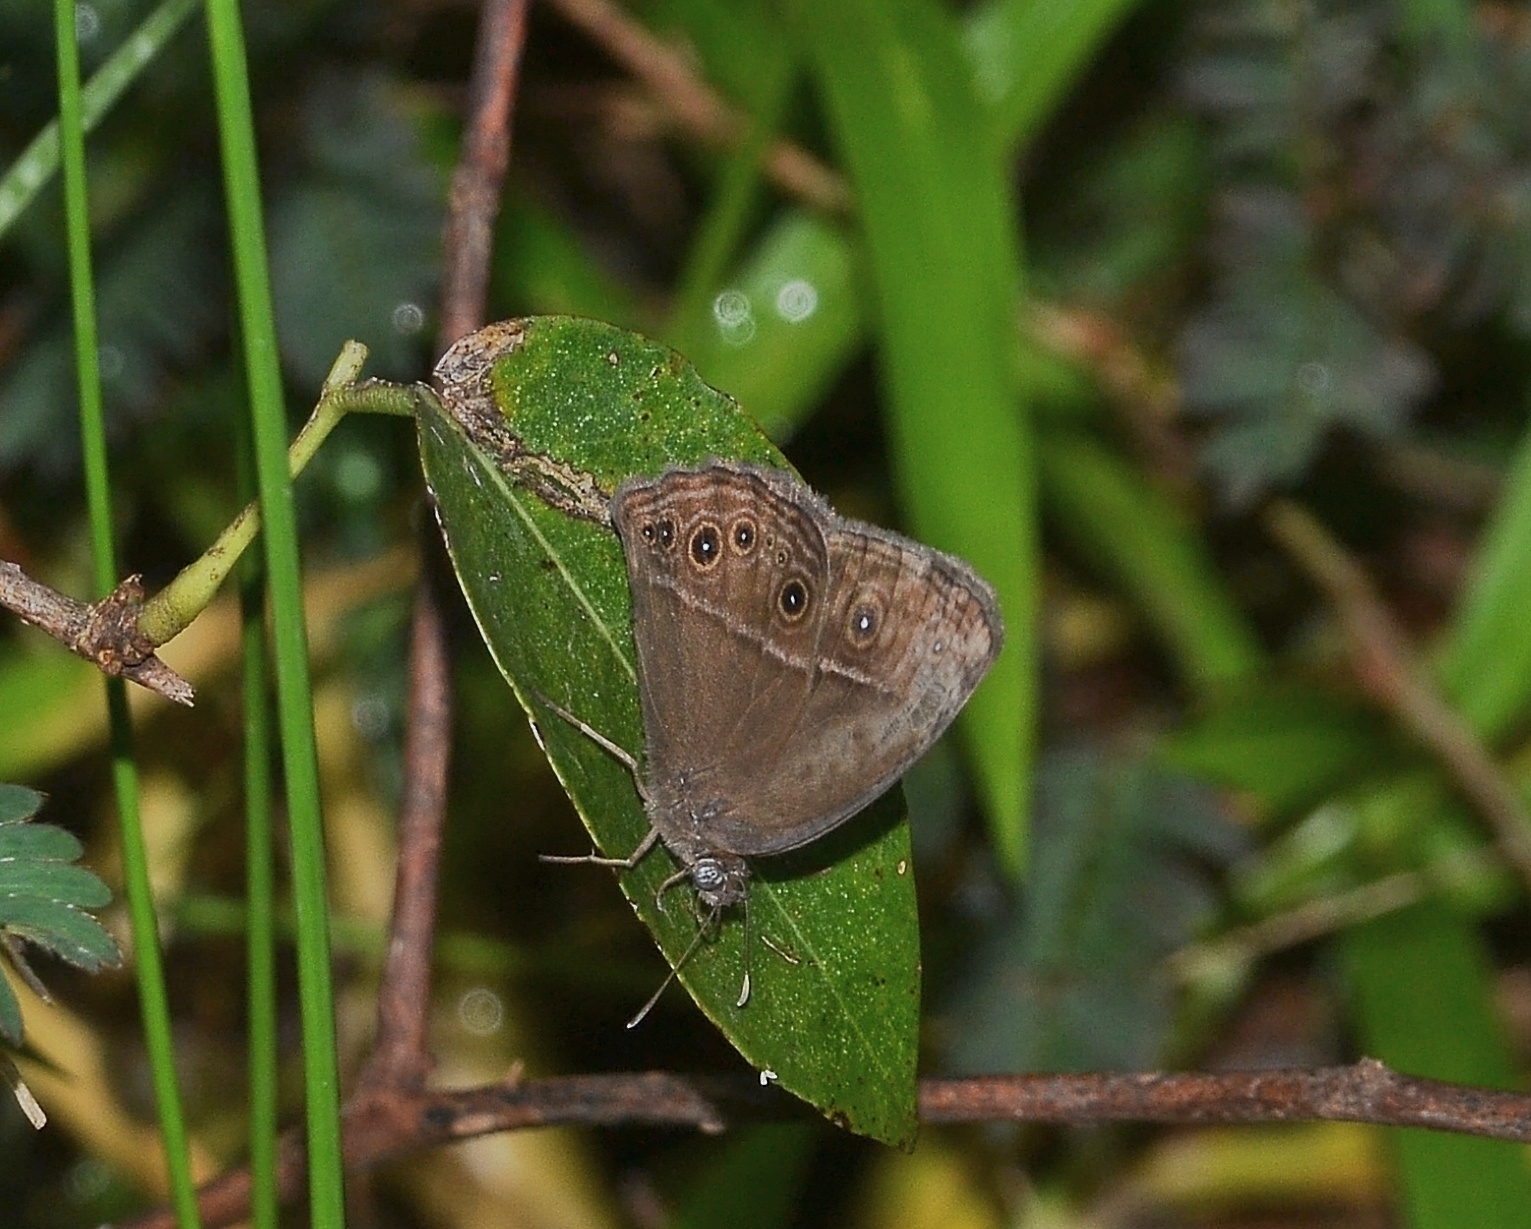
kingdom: Animalia
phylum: Arthropoda
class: Insecta
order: Lepidoptera
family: Nymphalidae
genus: Mycalesis
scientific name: Mycalesis mineus
